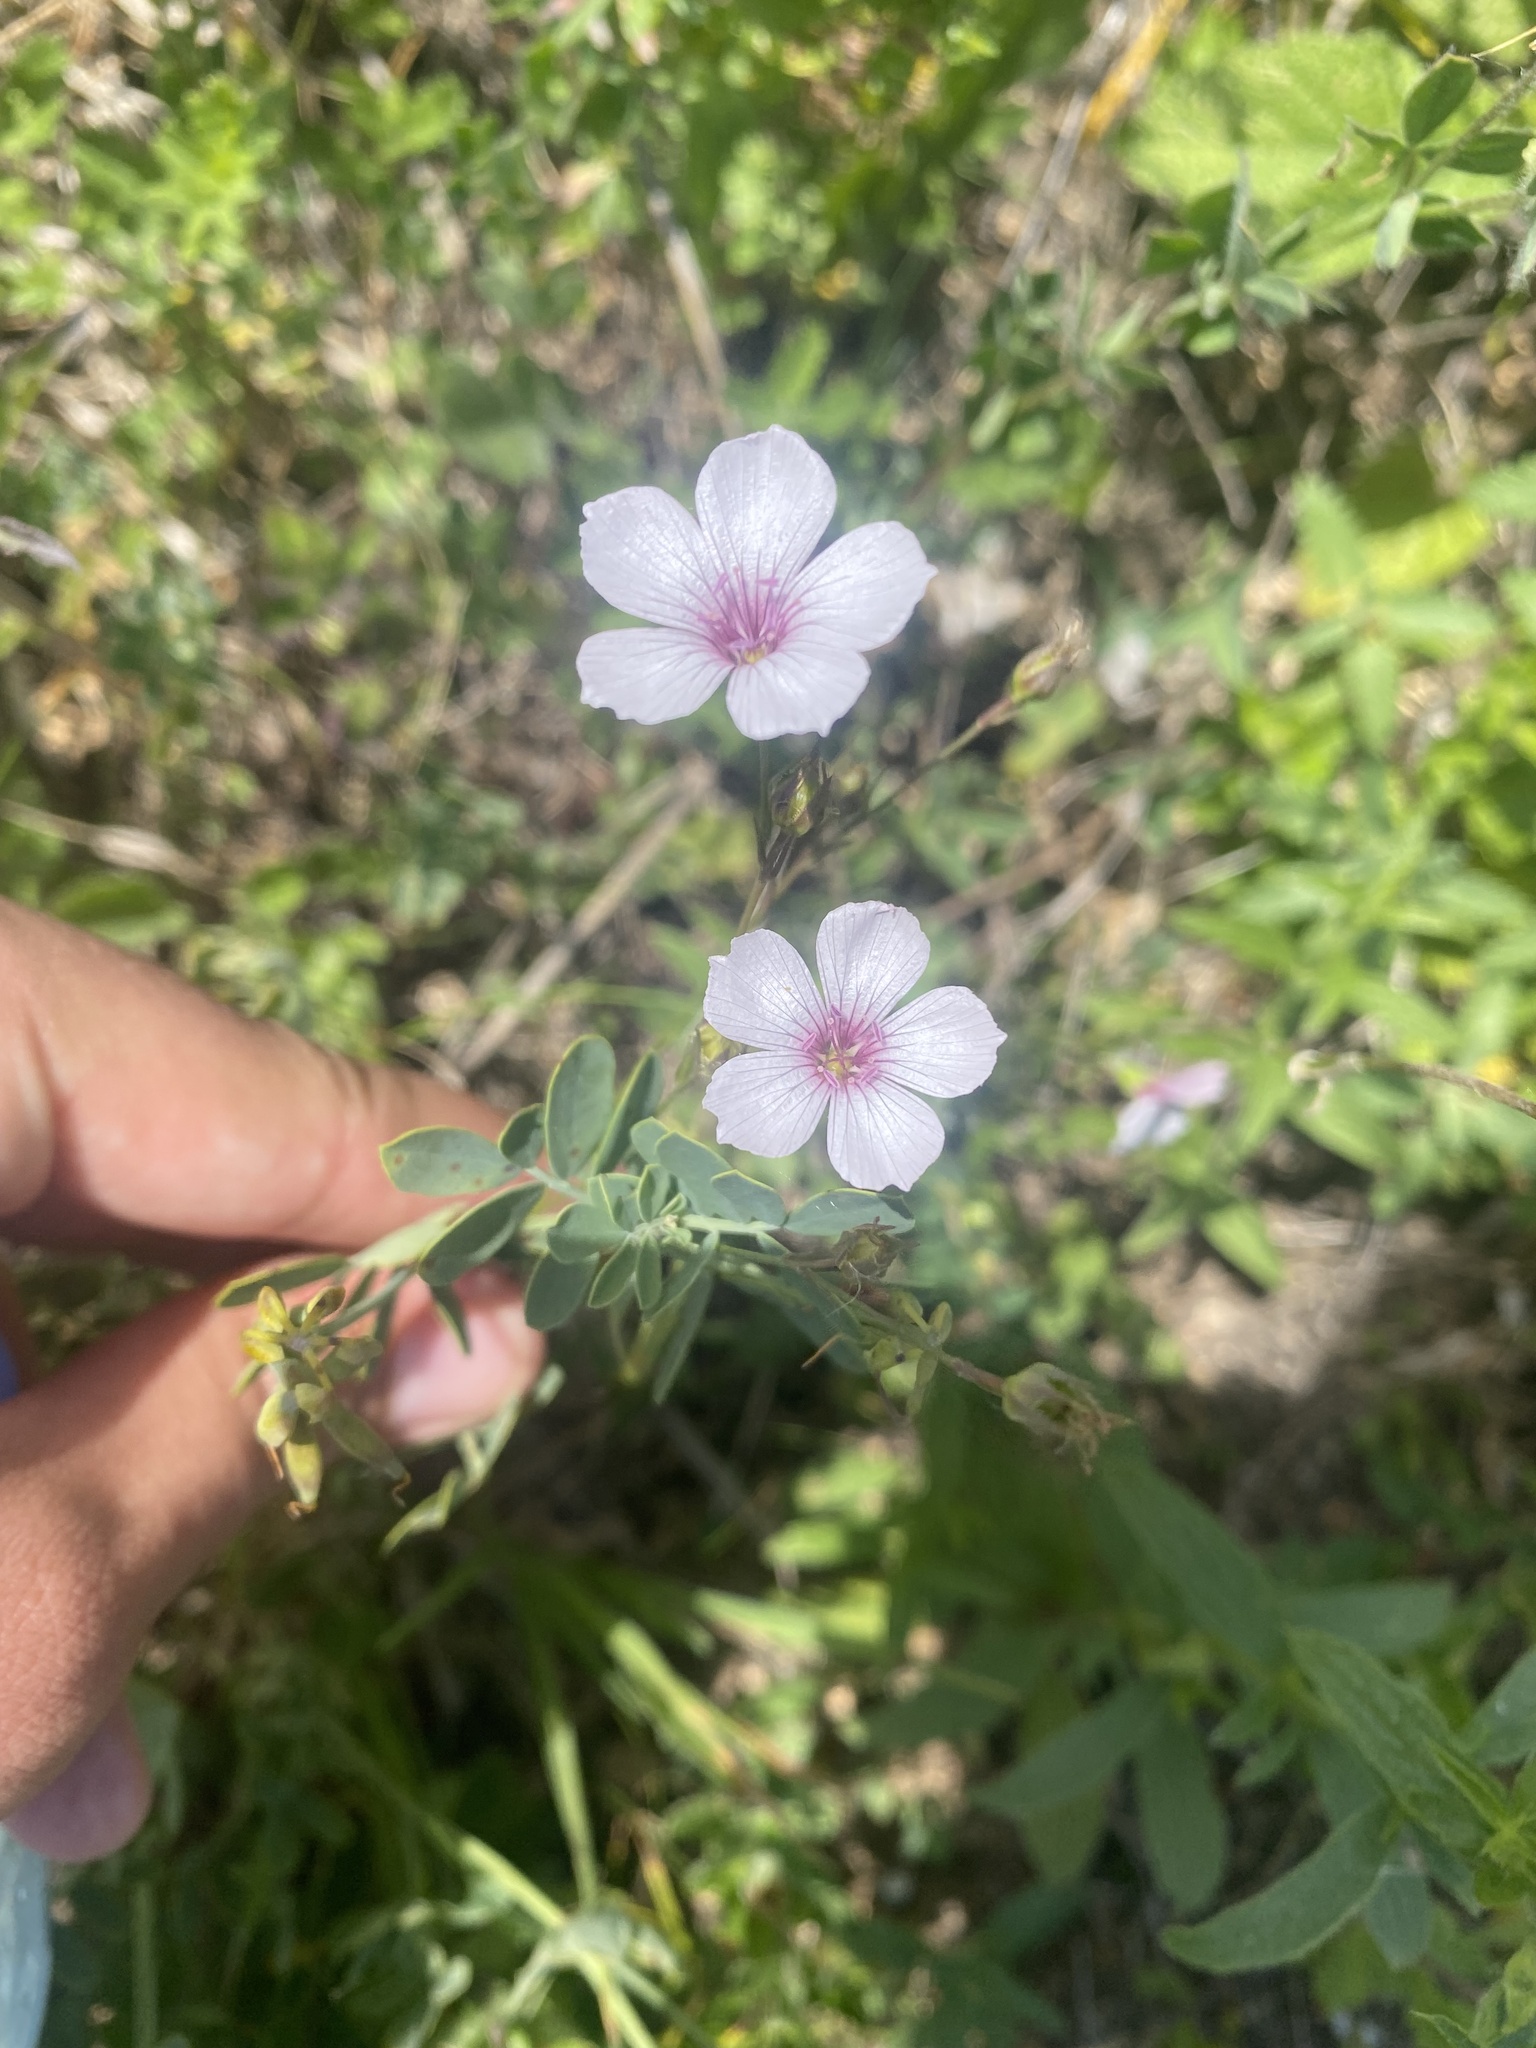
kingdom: Plantae
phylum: Tracheophyta
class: Magnoliopsida
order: Malpighiales
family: Linaceae
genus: Linum
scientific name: Linum tenuifolium
